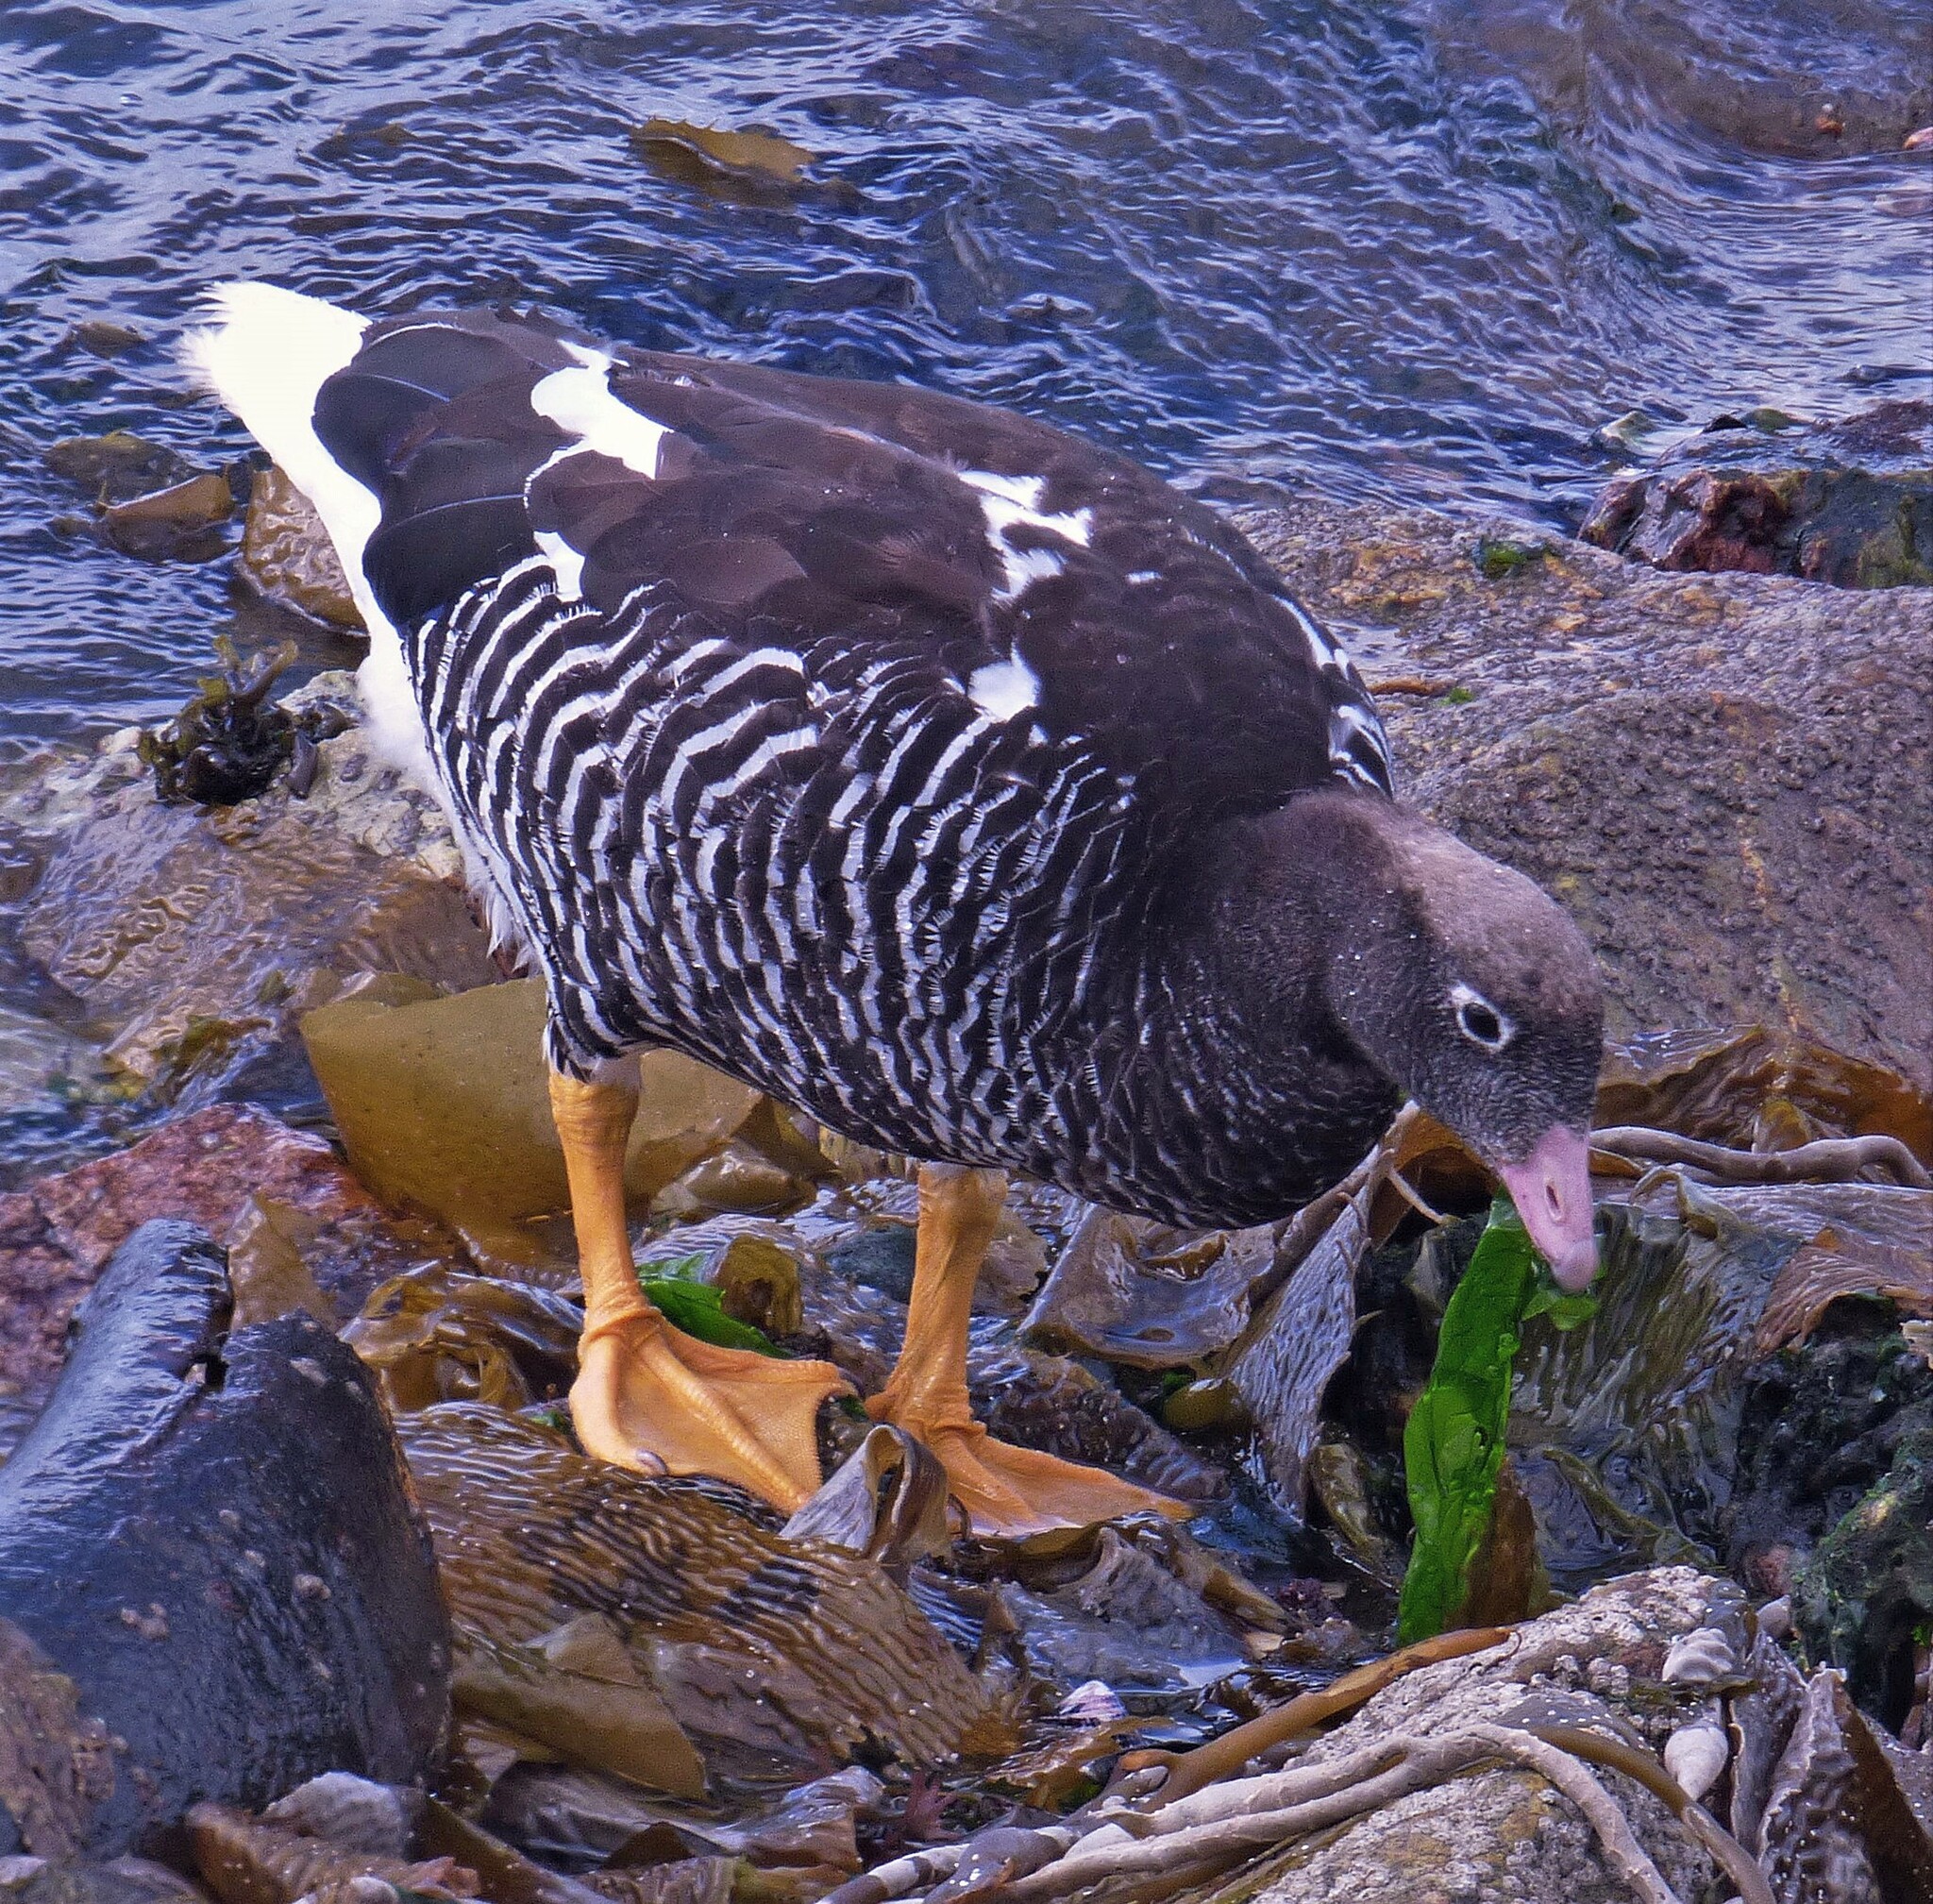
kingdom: Animalia
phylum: Chordata
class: Aves
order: Anseriformes
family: Anatidae
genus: Chloephaga
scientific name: Chloephaga hybrida
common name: Kelp goose
